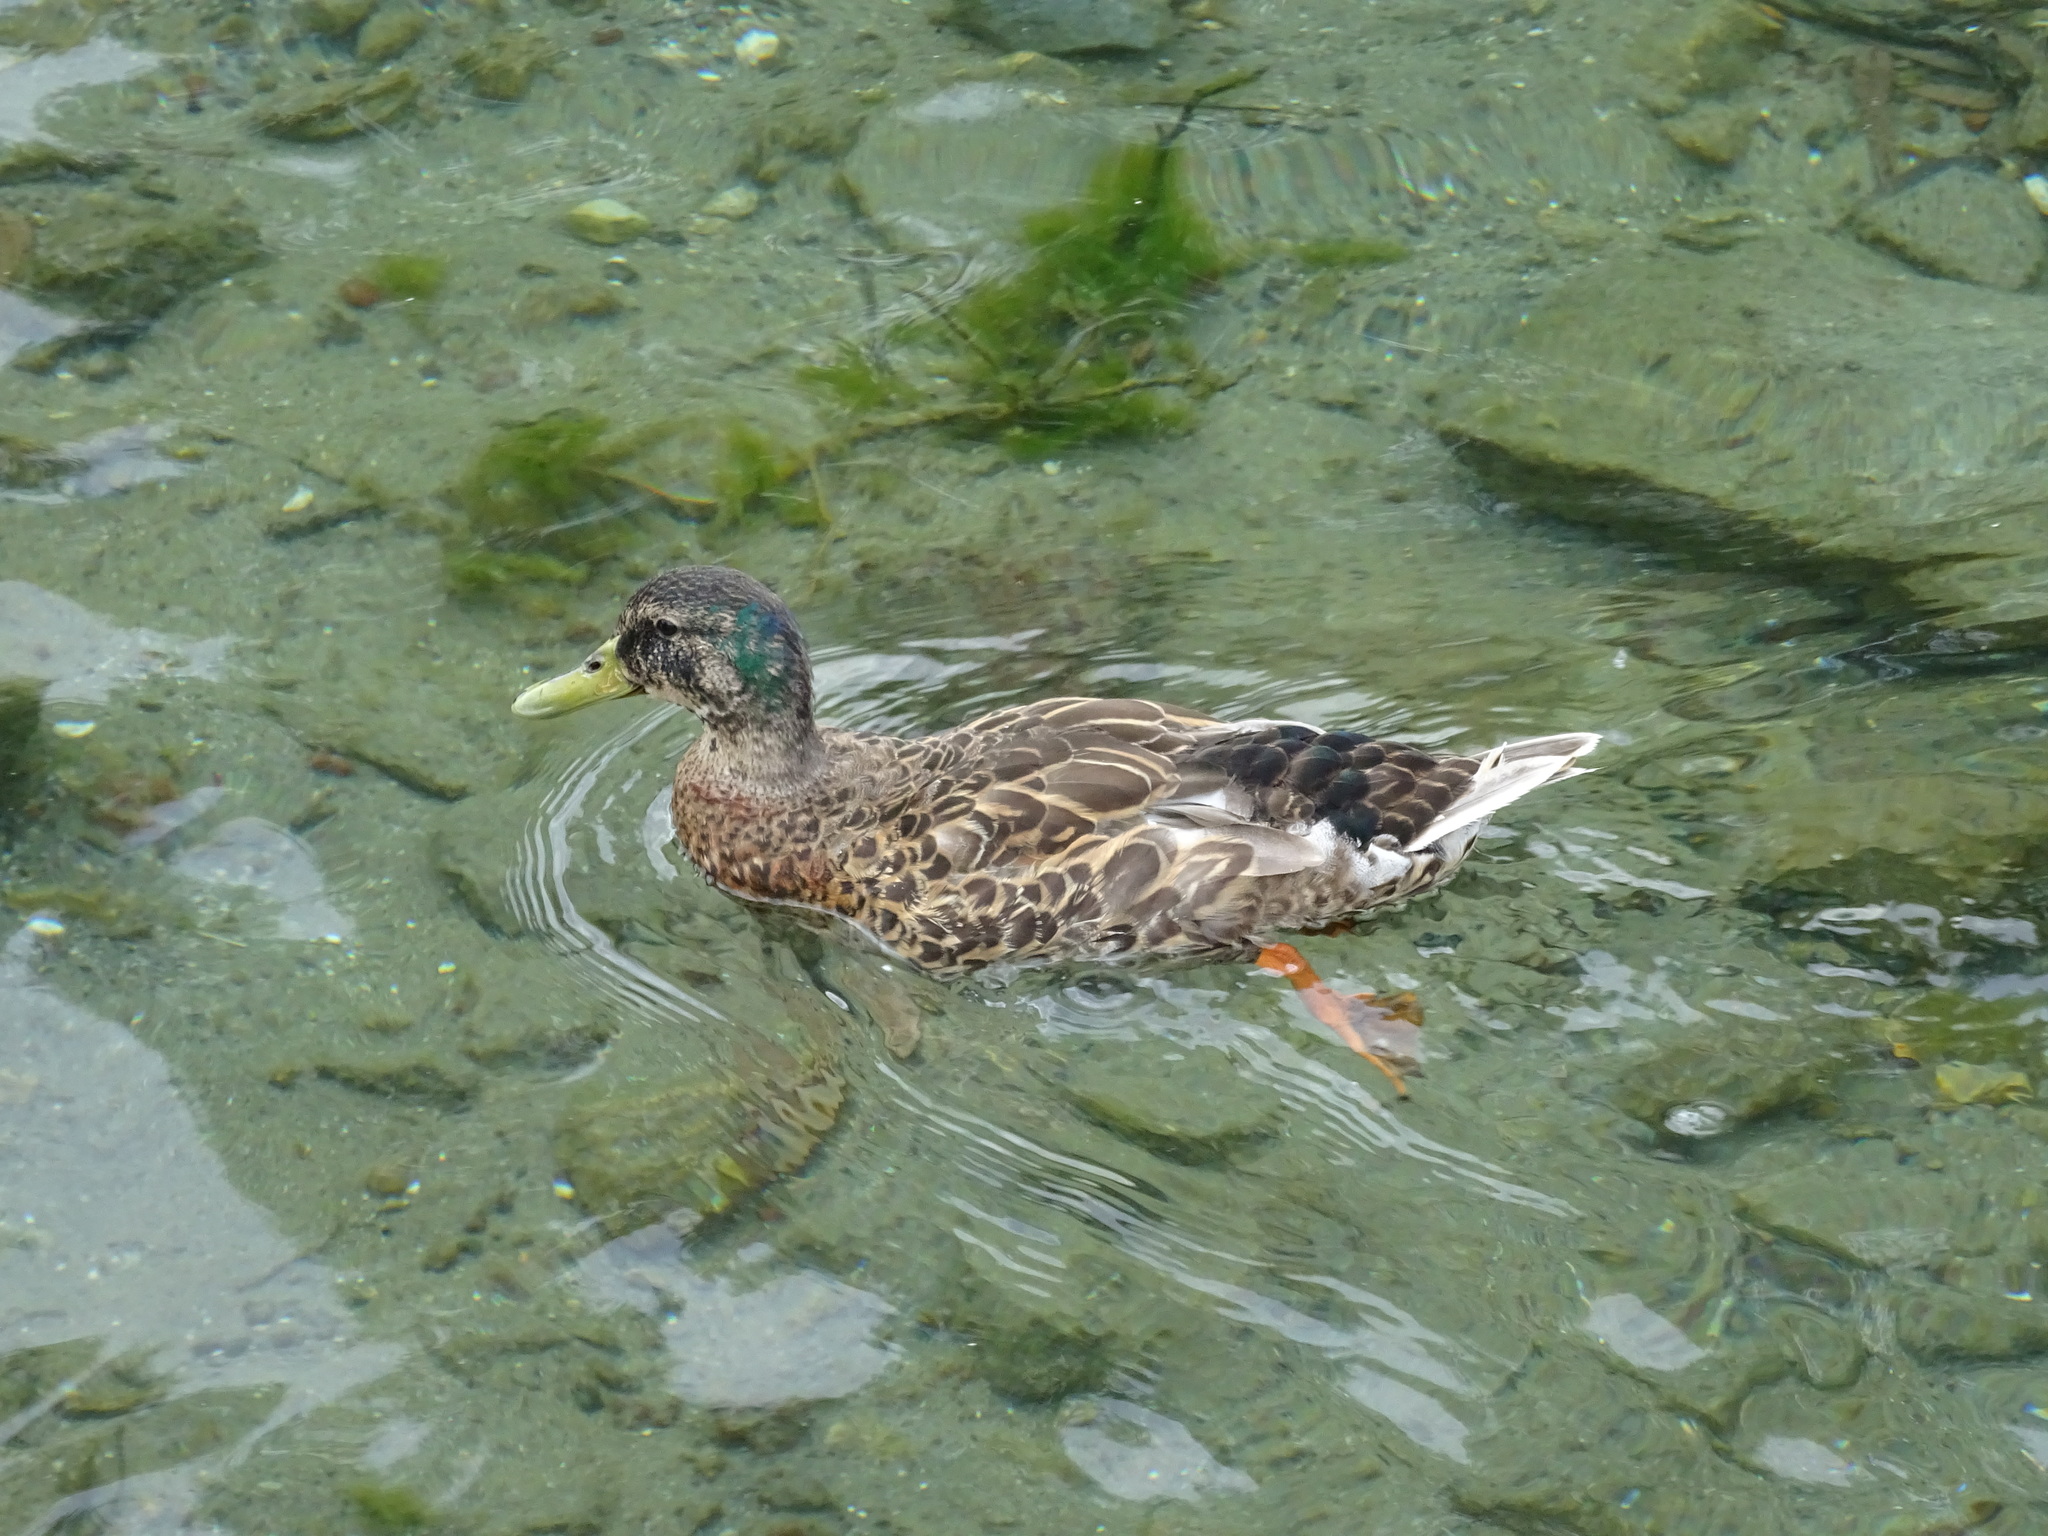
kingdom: Animalia
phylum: Chordata
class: Aves
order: Anseriformes
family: Anatidae
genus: Anas
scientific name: Anas
